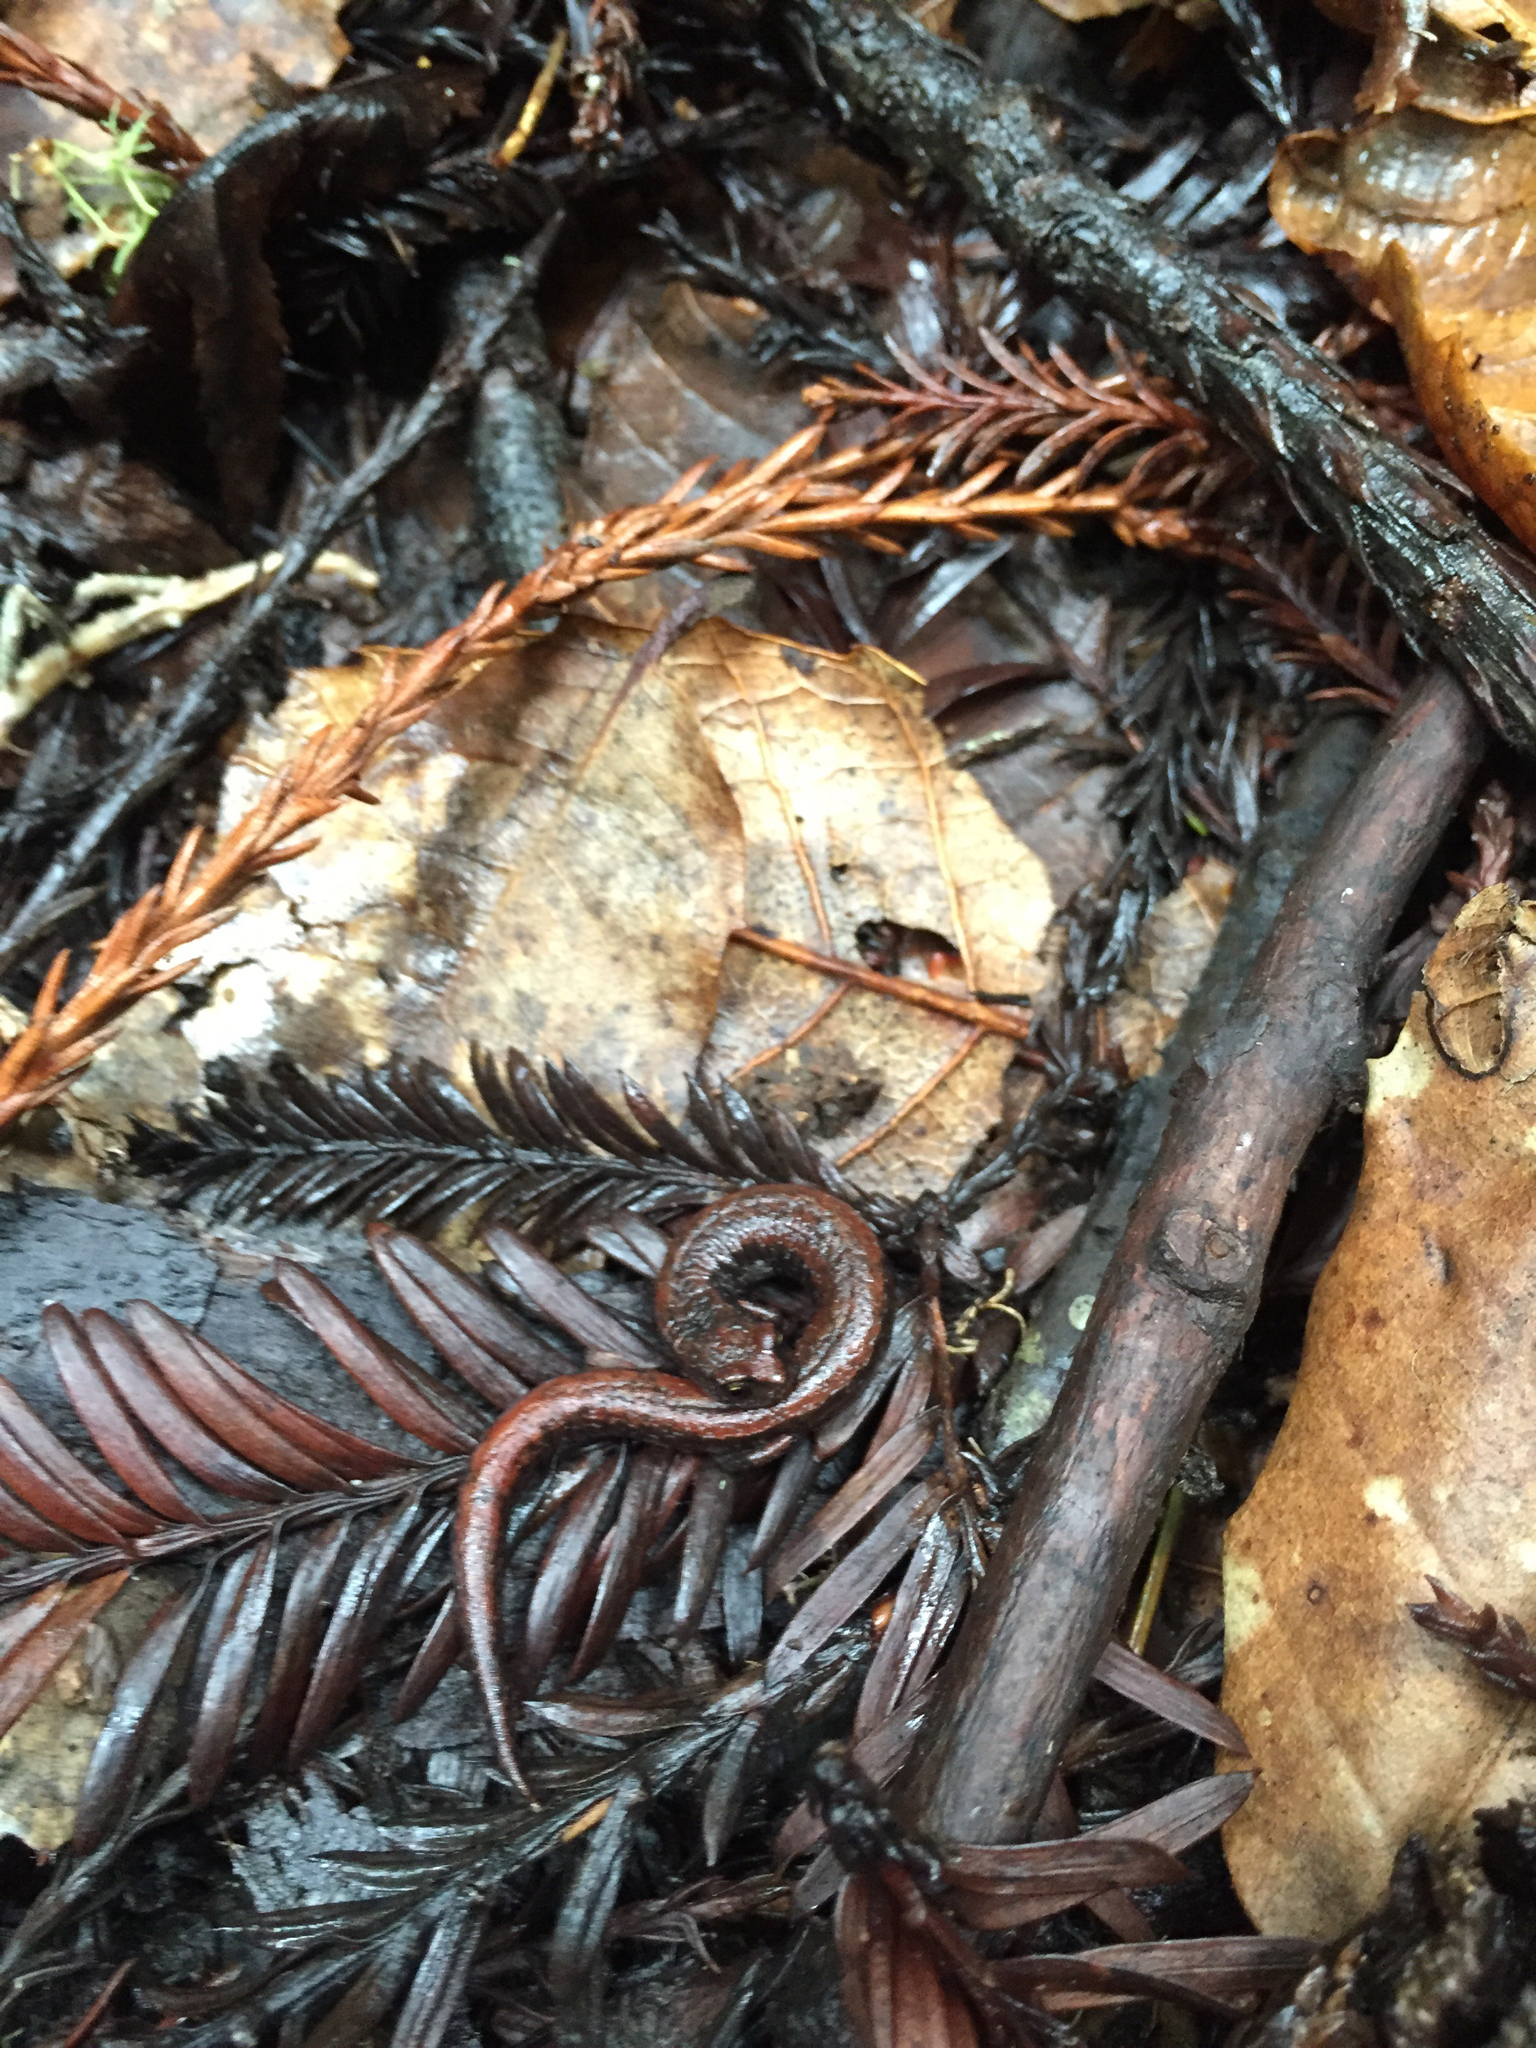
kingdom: Animalia
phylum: Chordata
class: Amphibia
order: Caudata
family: Plethodontidae
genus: Batrachoseps
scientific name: Batrachoseps attenuatus
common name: California slender salamander
